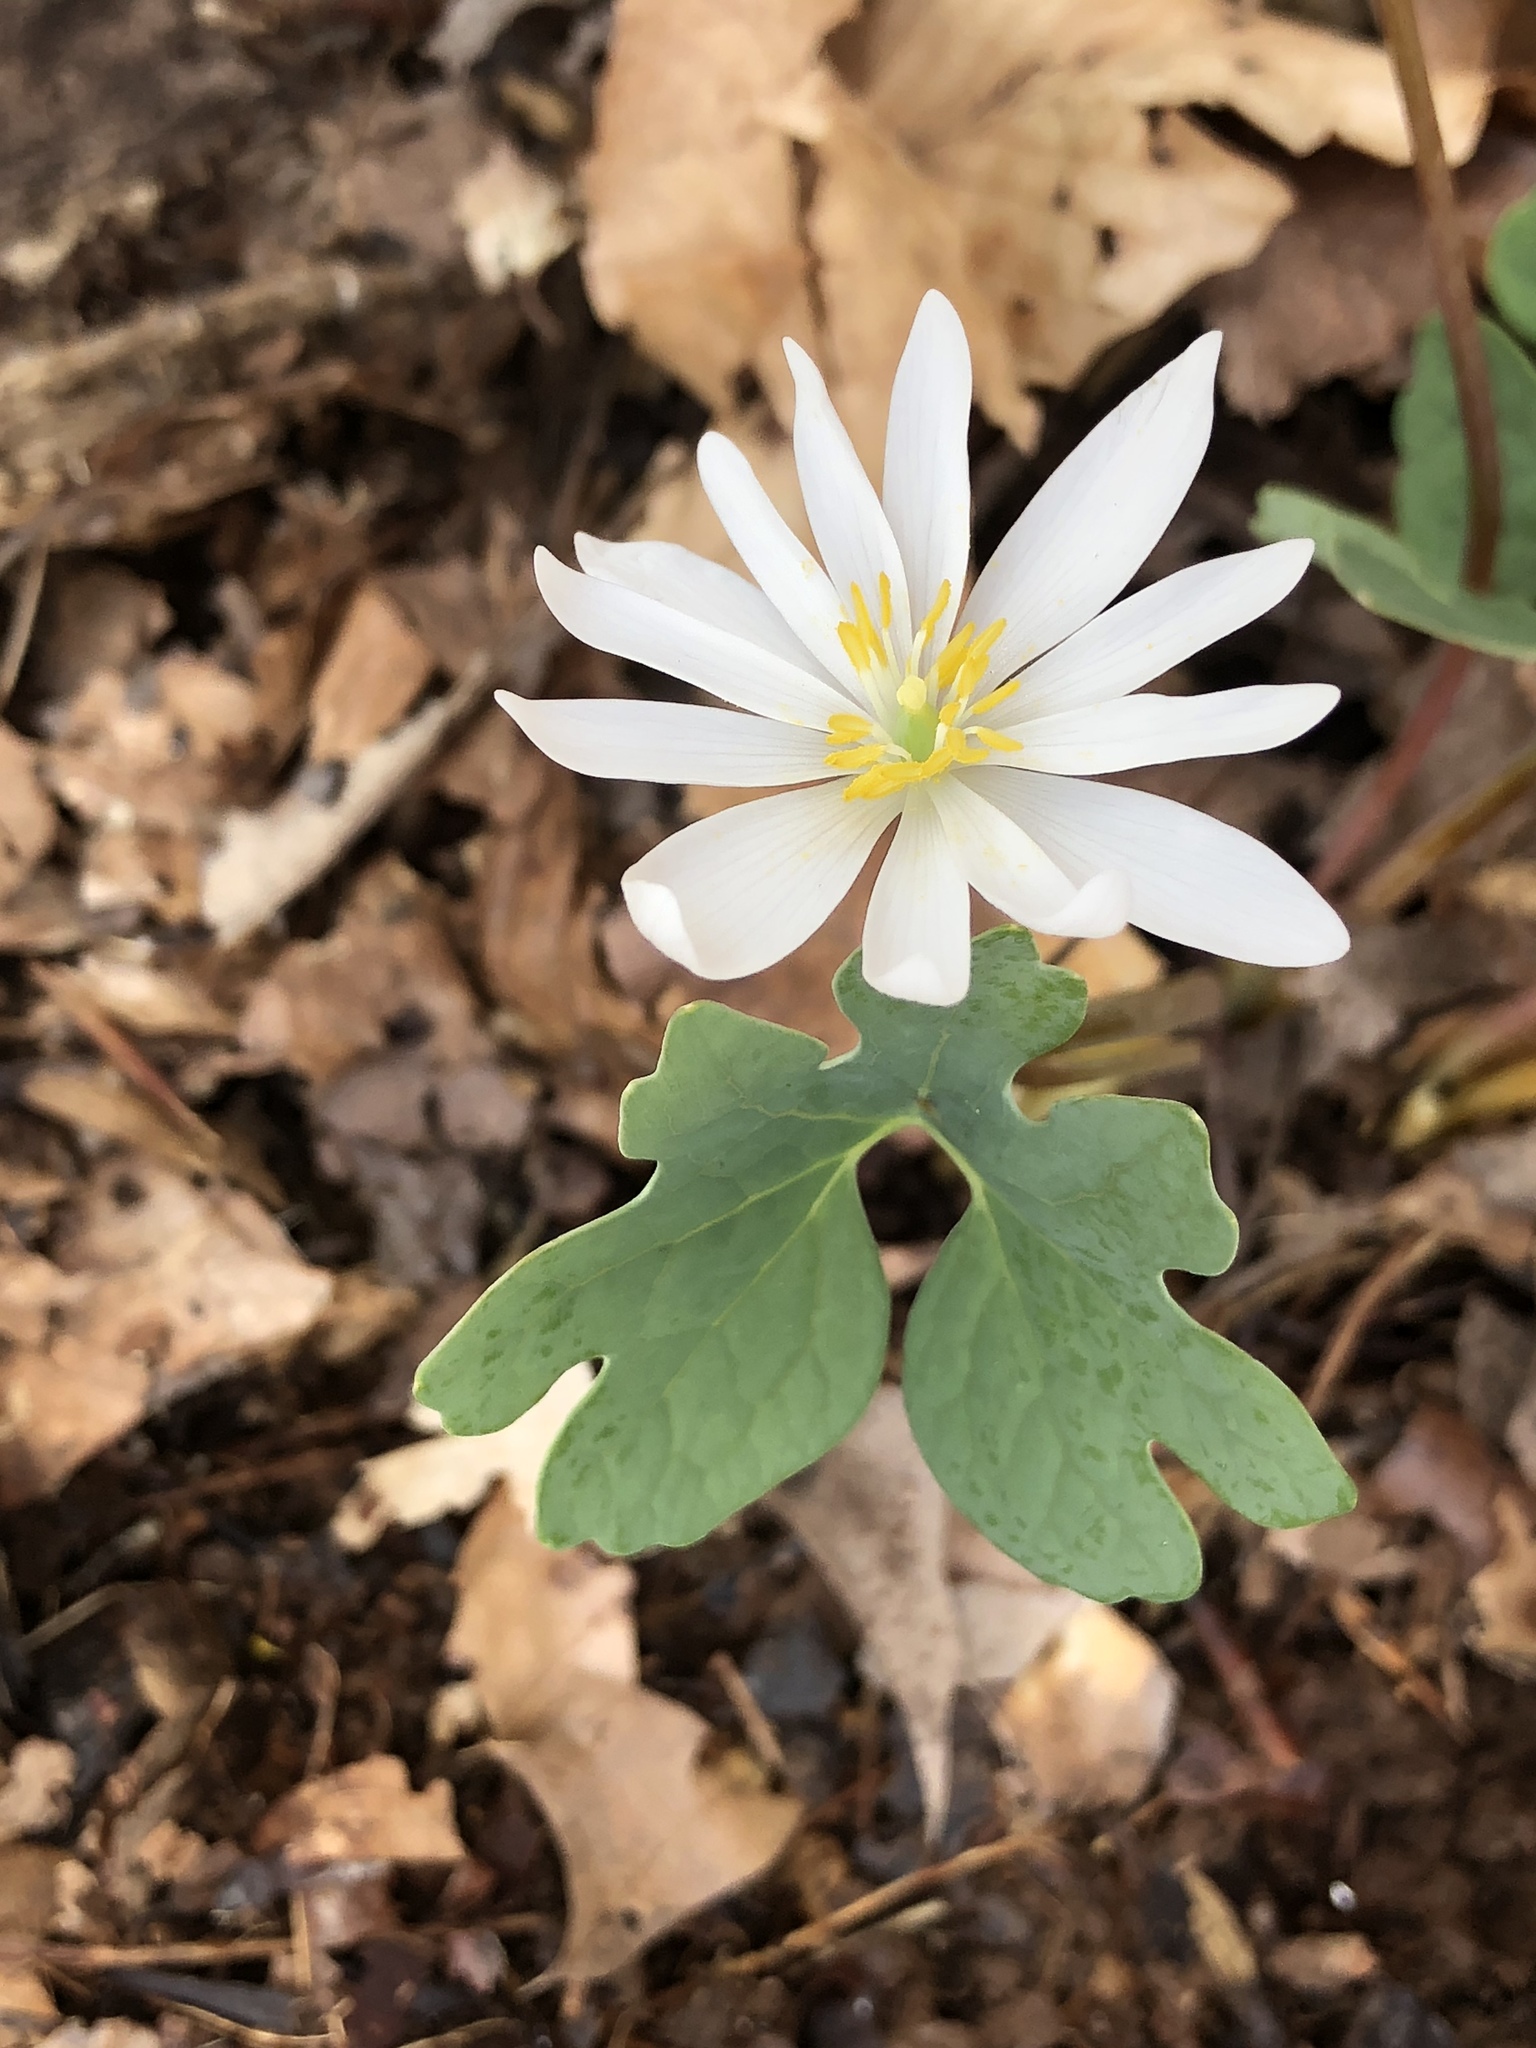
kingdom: Plantae
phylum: Tracheophyta
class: Magnoliopsida
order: Ranunculales
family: Papaveraceae
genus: Sanguinaria
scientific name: Sanguinaria canadensis
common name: Bloodroot
